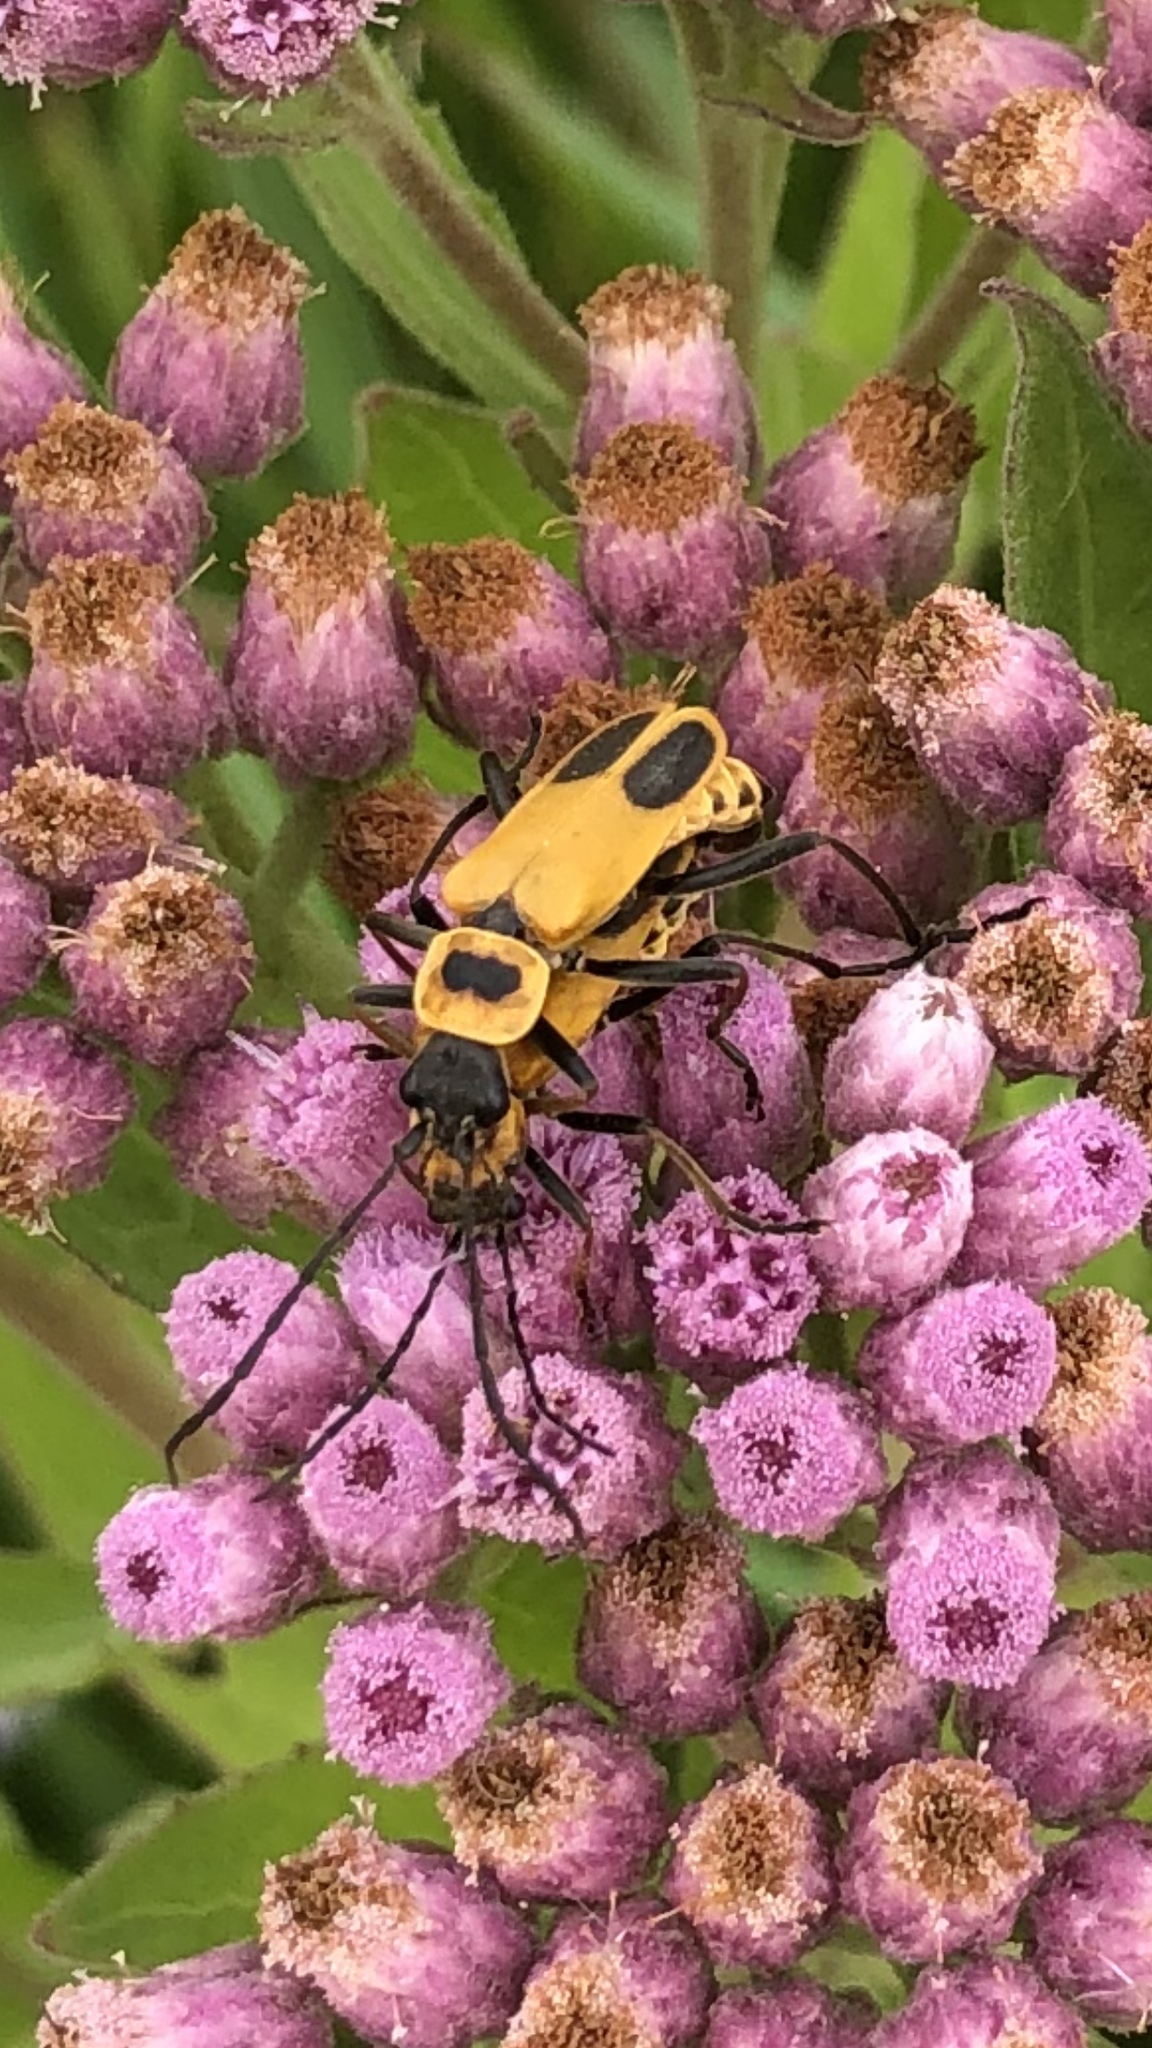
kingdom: Animalia
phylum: Arthropoda
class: Insecta
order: Coleoptera
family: Cantharidae
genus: Chauliognathus
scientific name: Chauliognathus pensylvanicus
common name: Goldenrod soldier beetle
